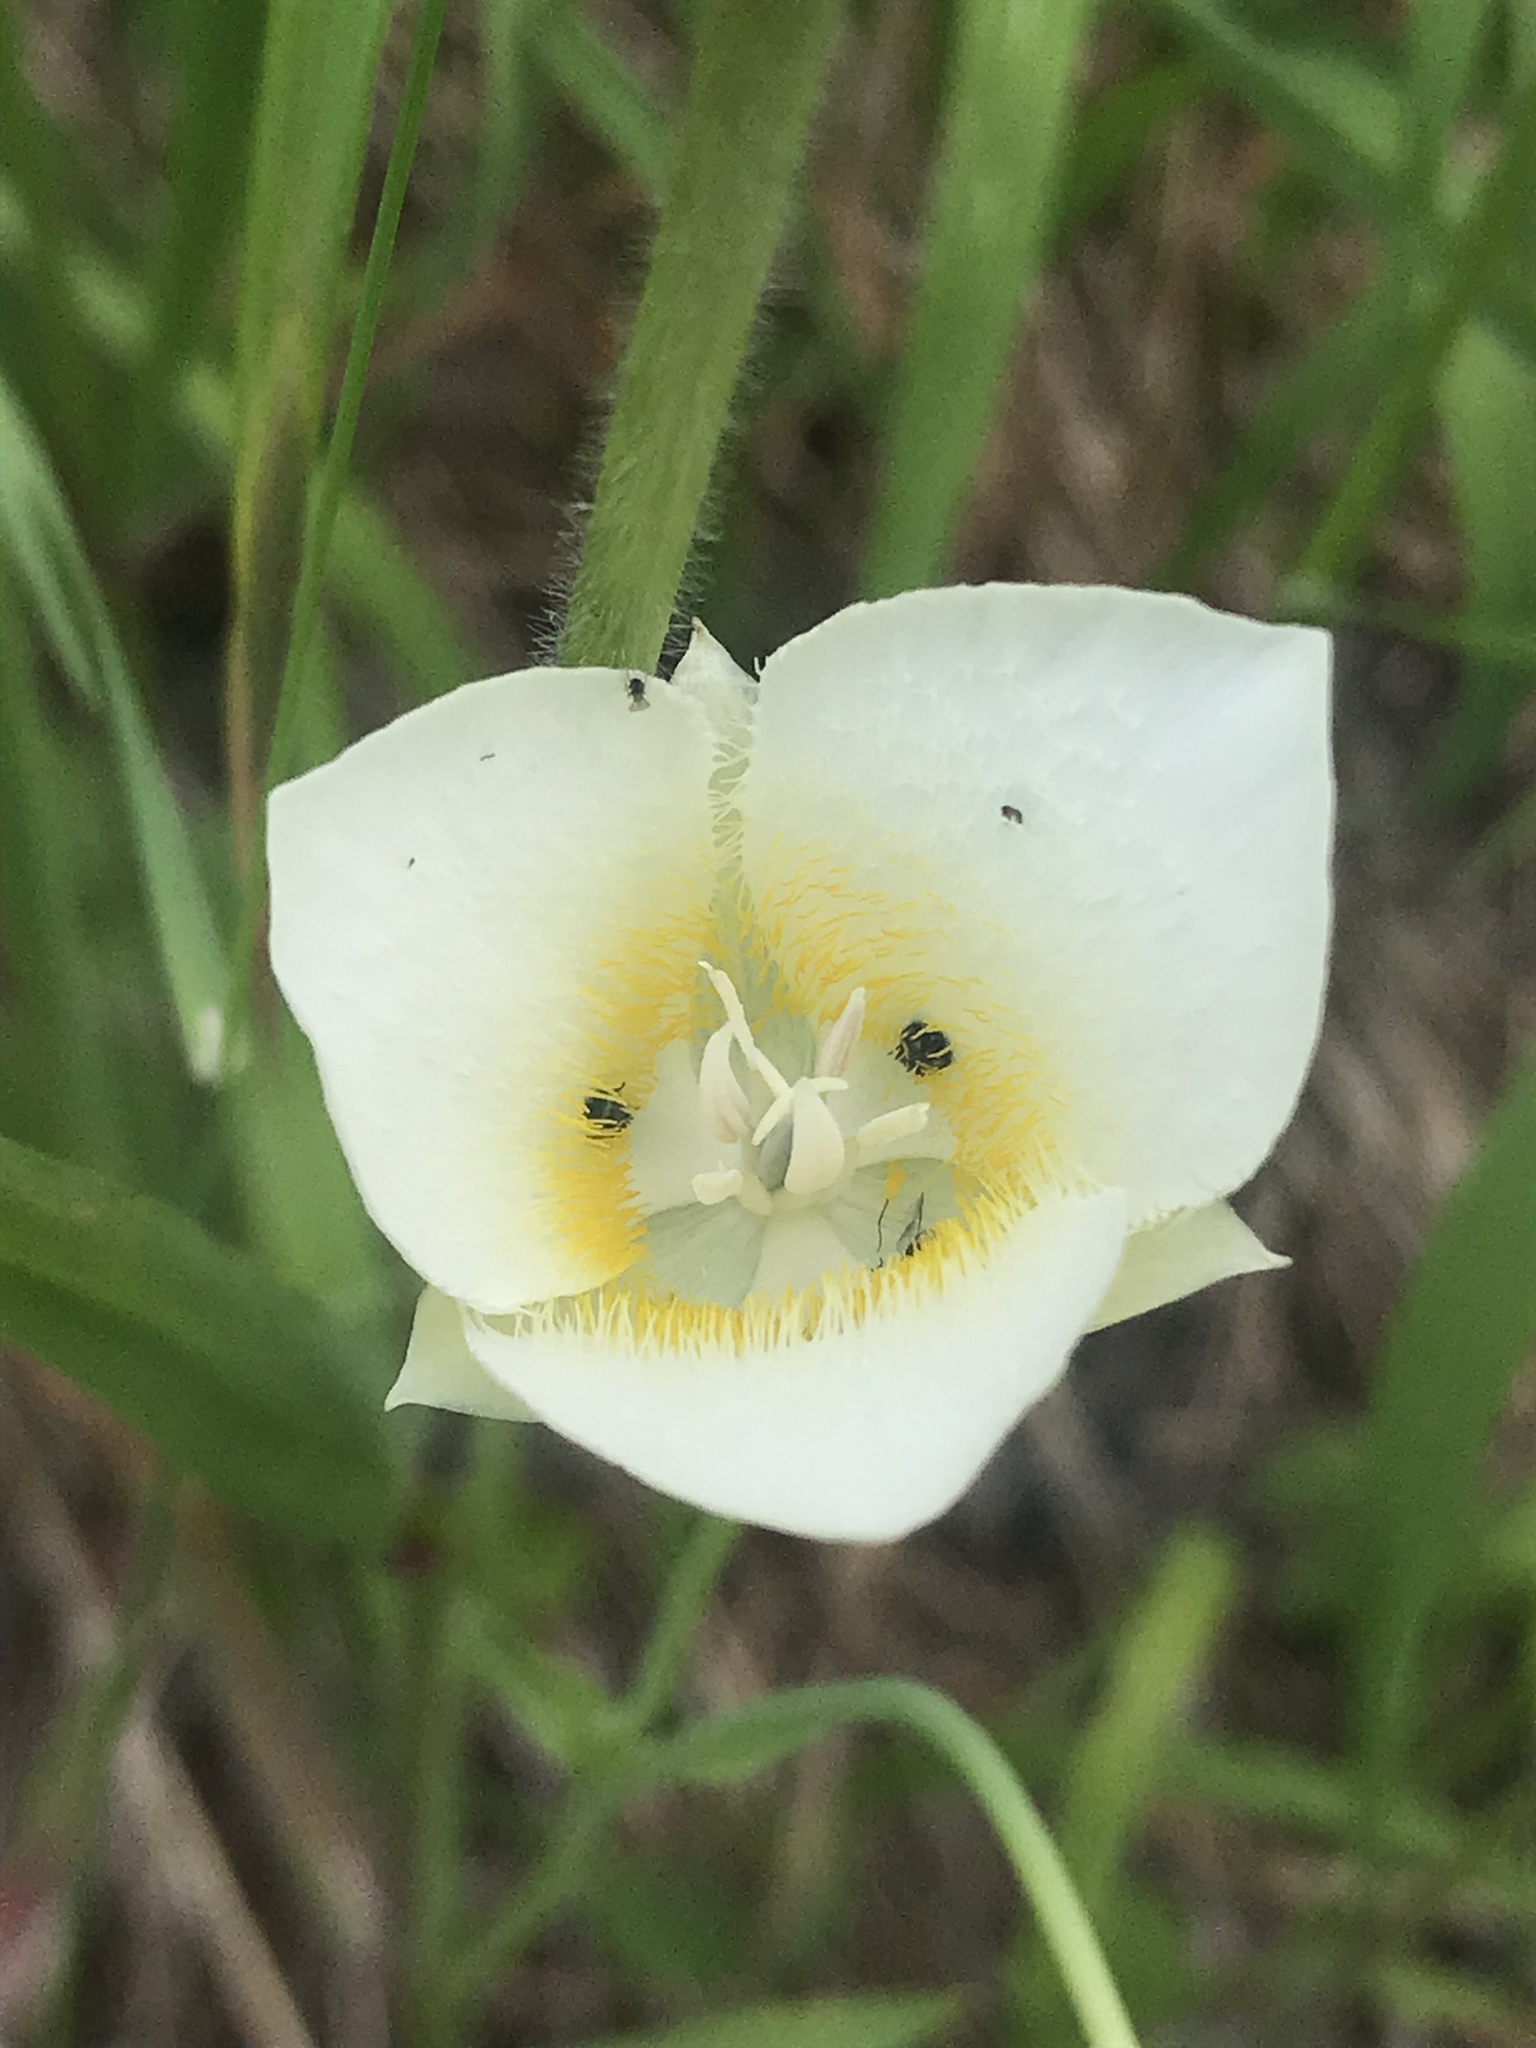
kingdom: Plantae
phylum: Tracheophyta
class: Liliopsida
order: Liliales
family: Liliaceae
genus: Calochortus
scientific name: Calochortus apiculatus
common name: Baker's mariposa lily
